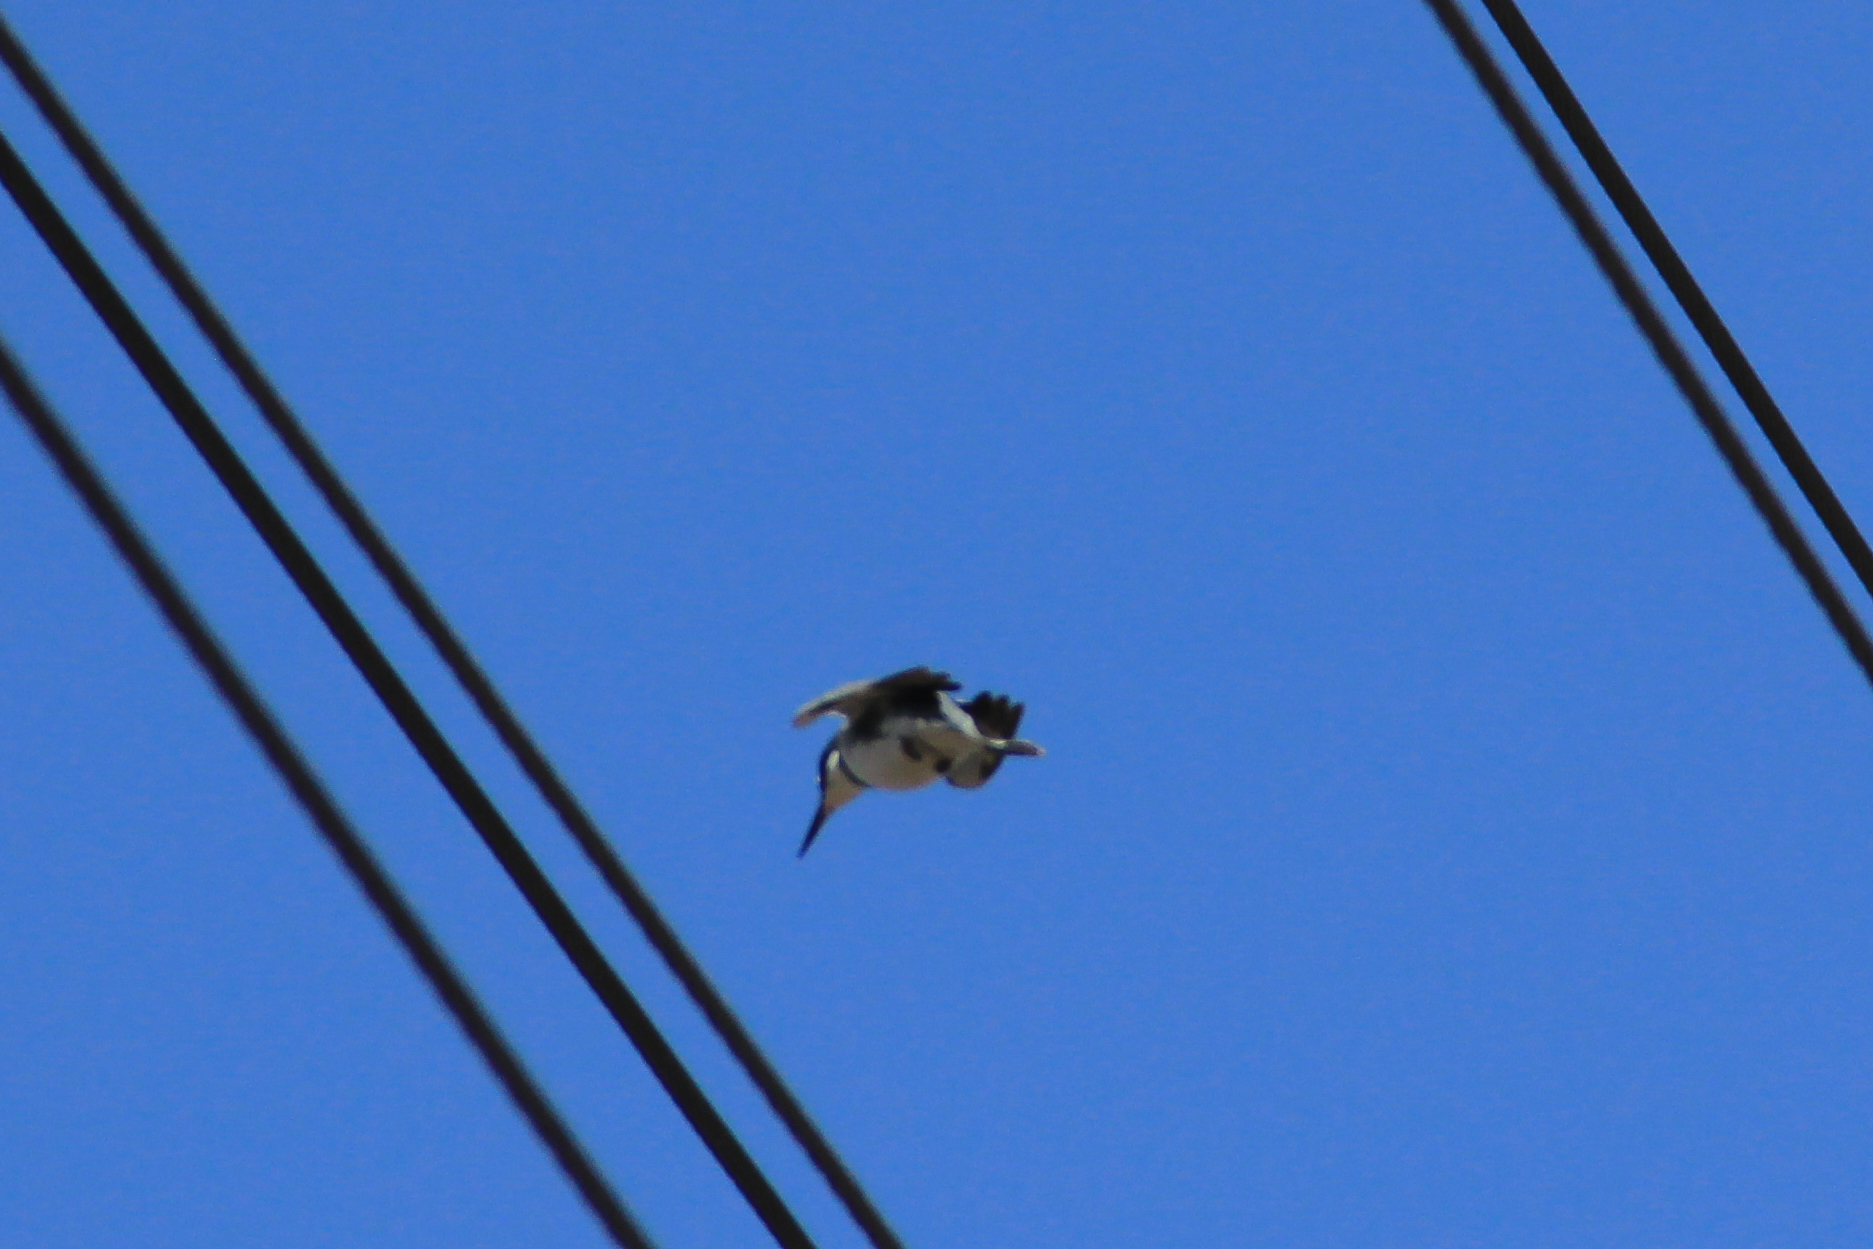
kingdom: Animalia
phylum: Chordata
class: Aves
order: Coraciiformes
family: Alcedinidae
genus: Megaceryle
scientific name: Megaceryle alcyon
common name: Belted kingfisher
